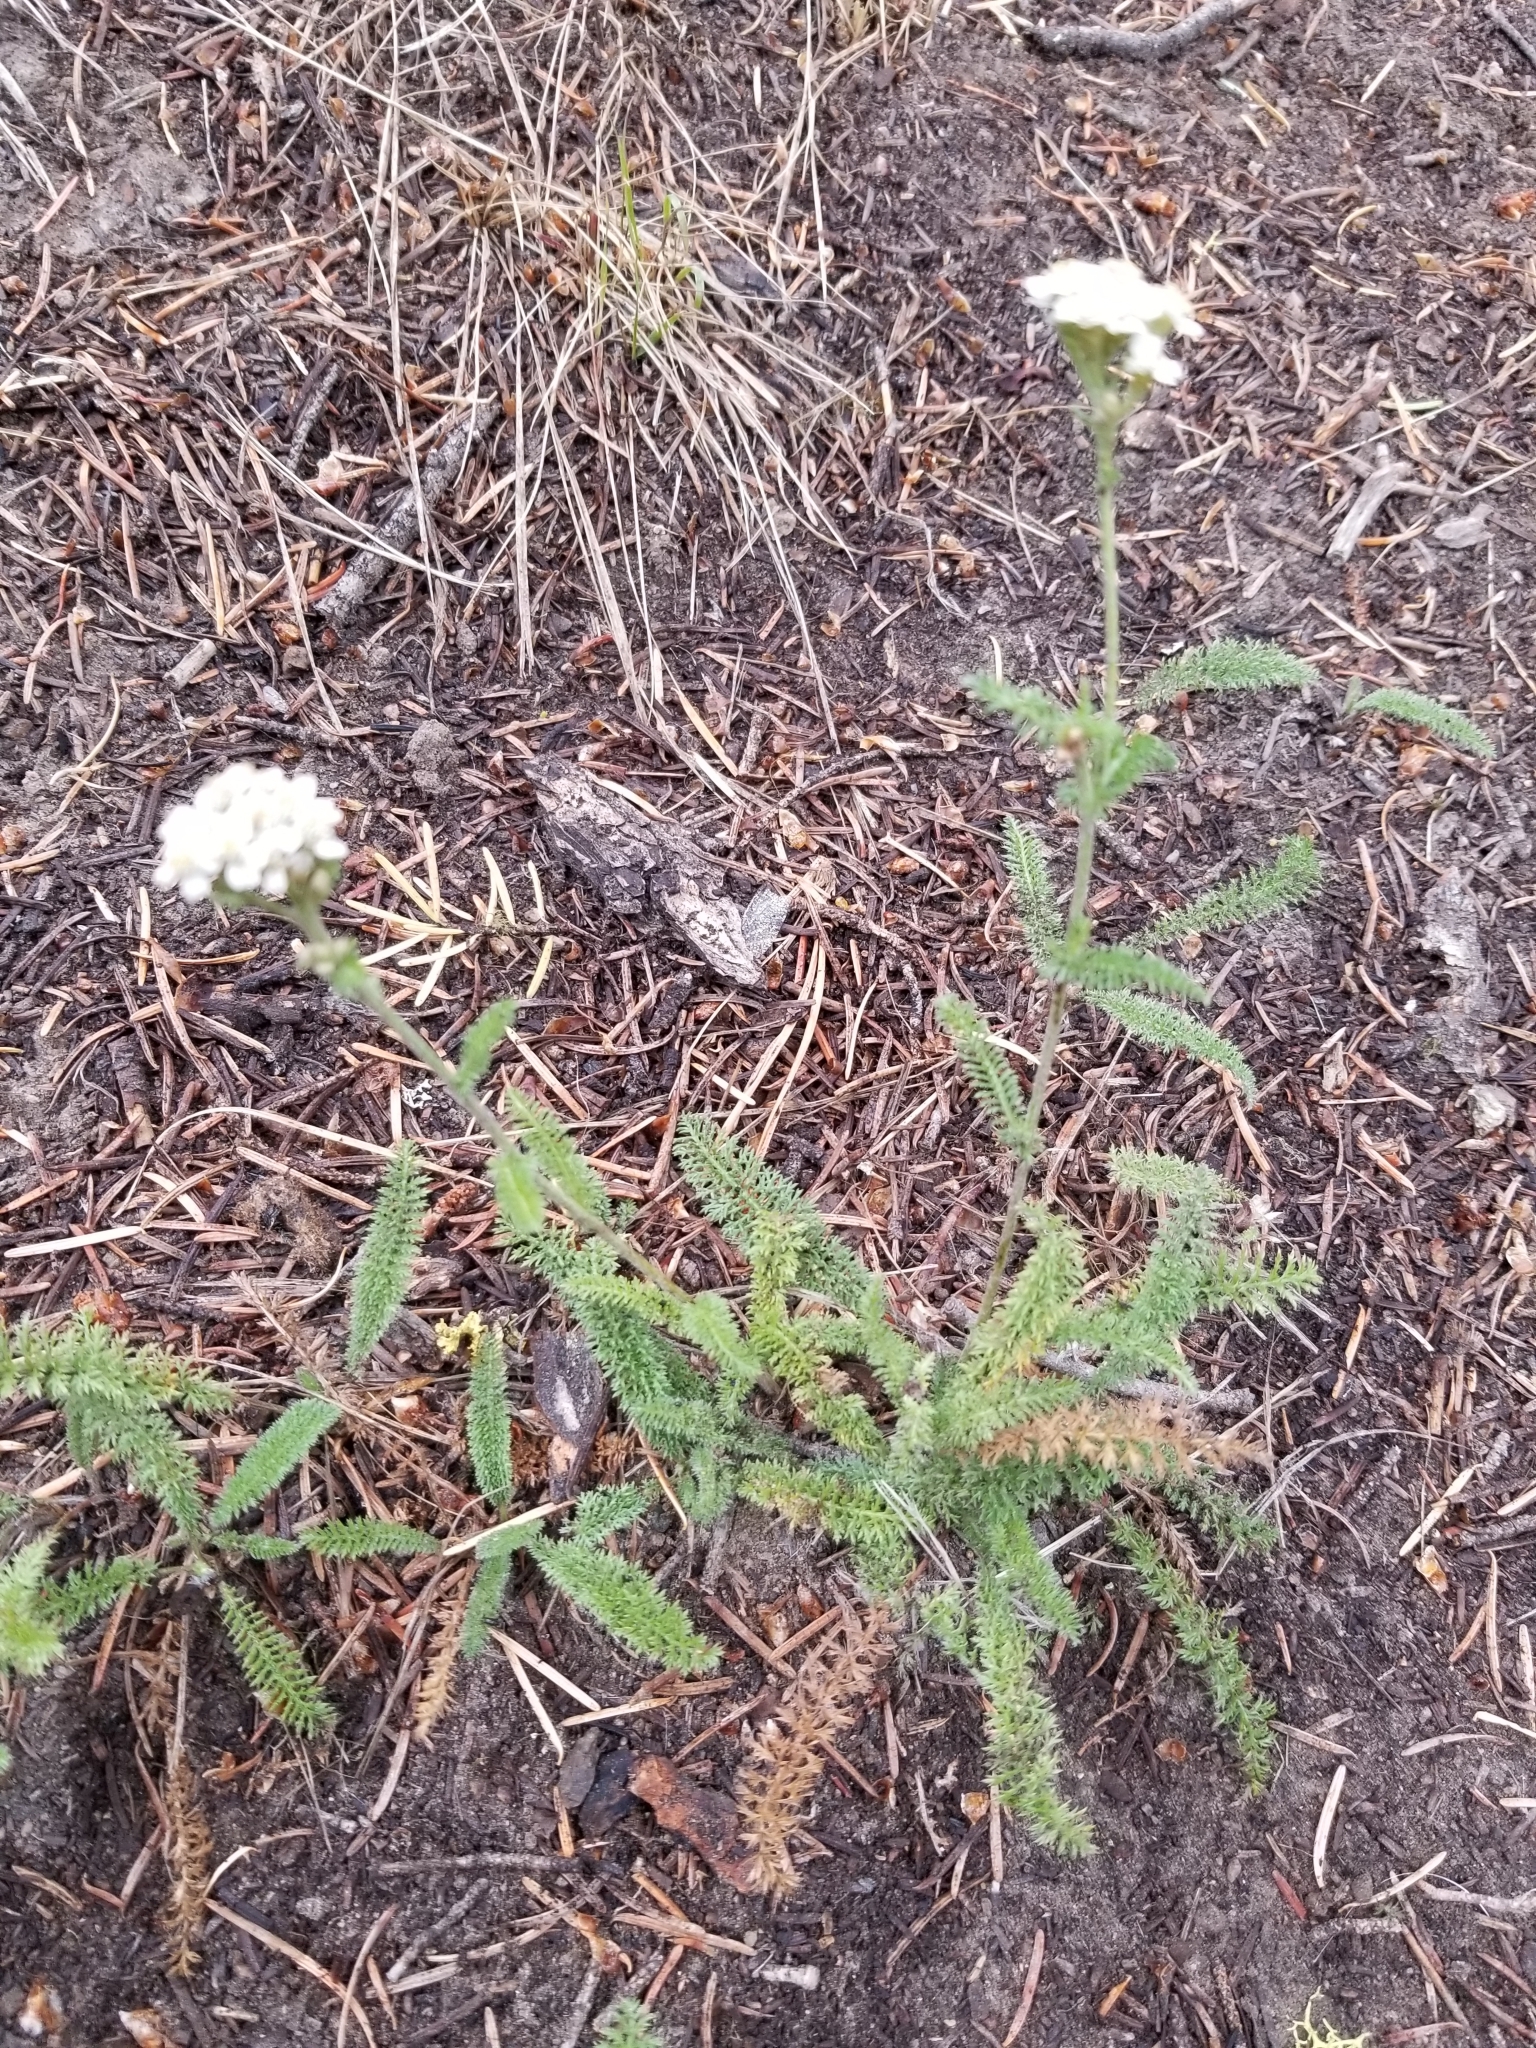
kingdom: Plantae
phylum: Tracheophyta
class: Magnoliopsida
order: Asterales
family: Asteraceae
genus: Achillea
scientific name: Achillea millefolium
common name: Yarrow
